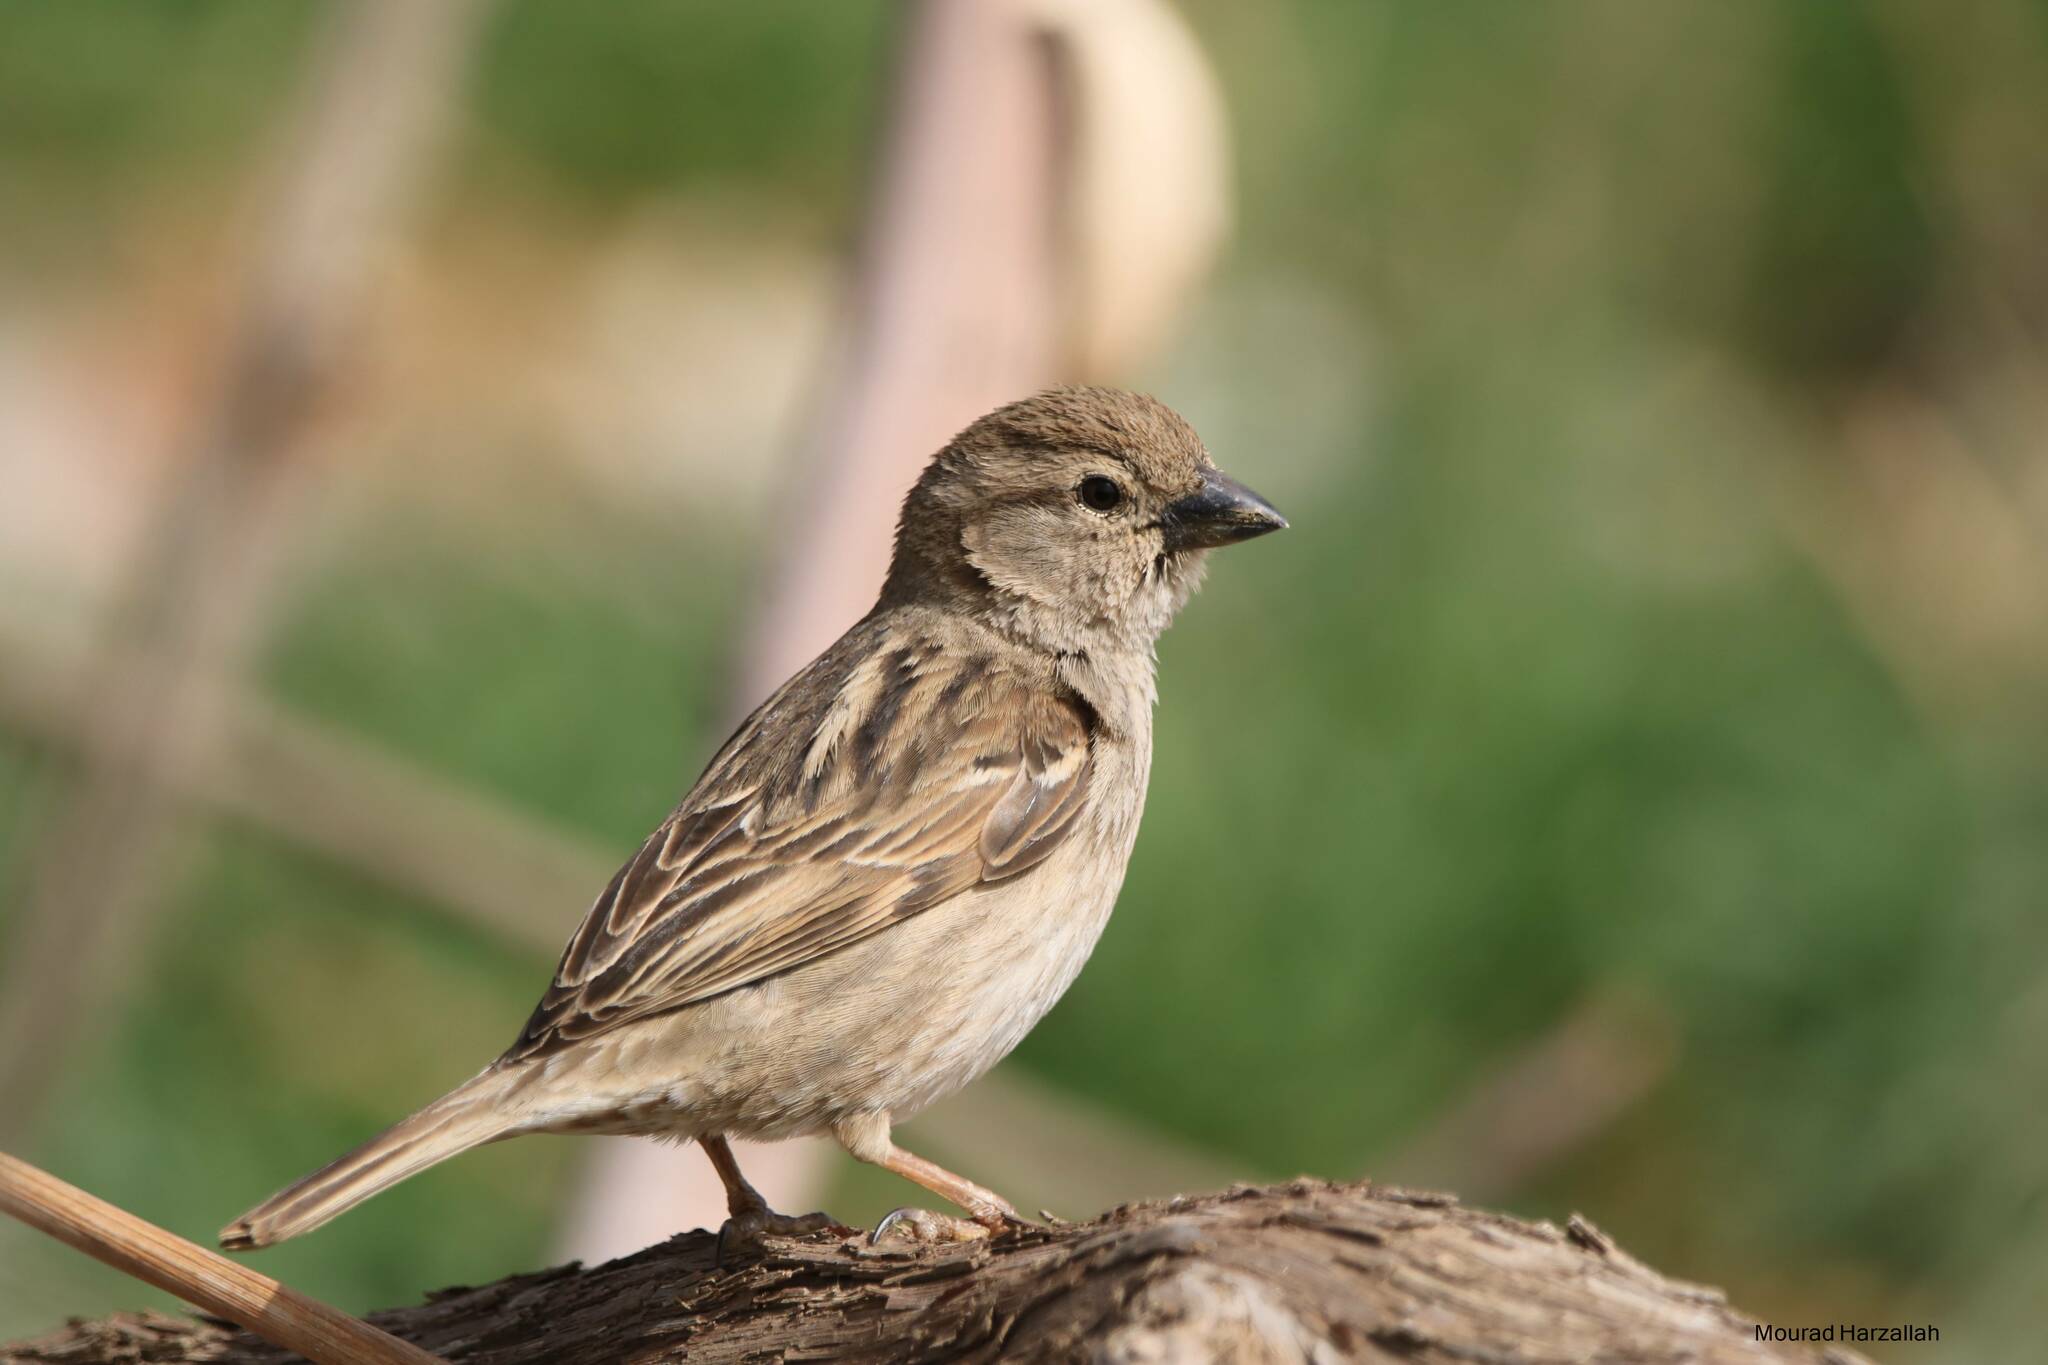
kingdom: Animalia
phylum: Chordata
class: Aves
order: Passeriformes
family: Passeridae
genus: Passer
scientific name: Passer hispaniolensis
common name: Spanish sparrow
